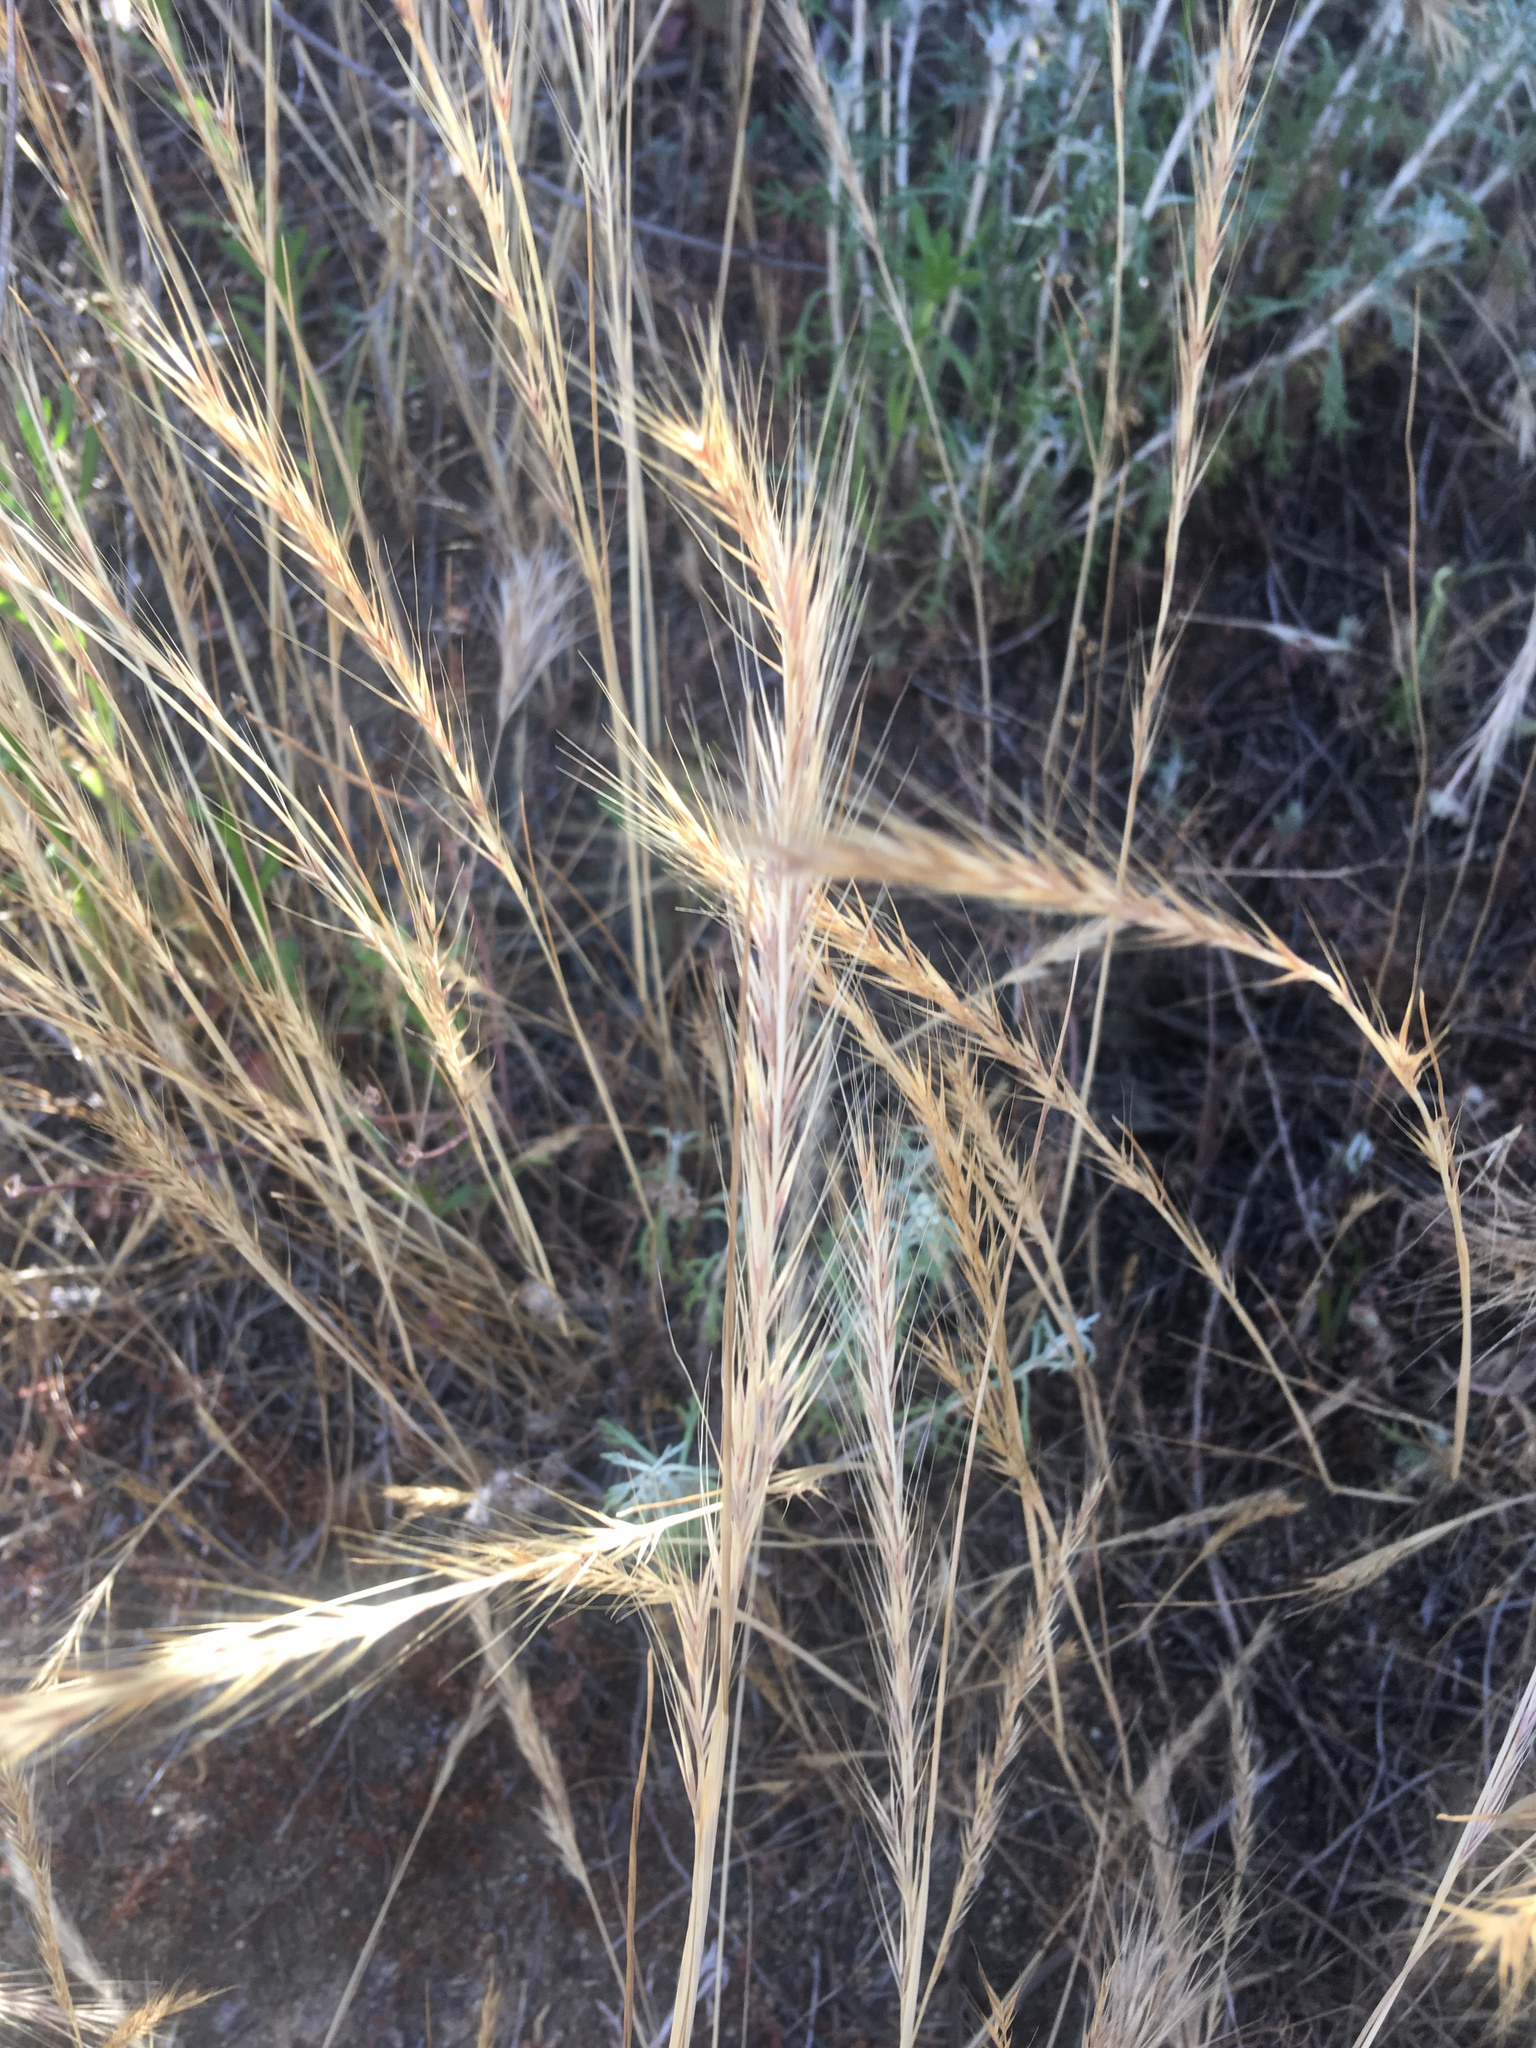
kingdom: Plantae
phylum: Tracheophyta
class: Liliopsida
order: Poales
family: Poaceae
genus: Festuca
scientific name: Festuca myuros
